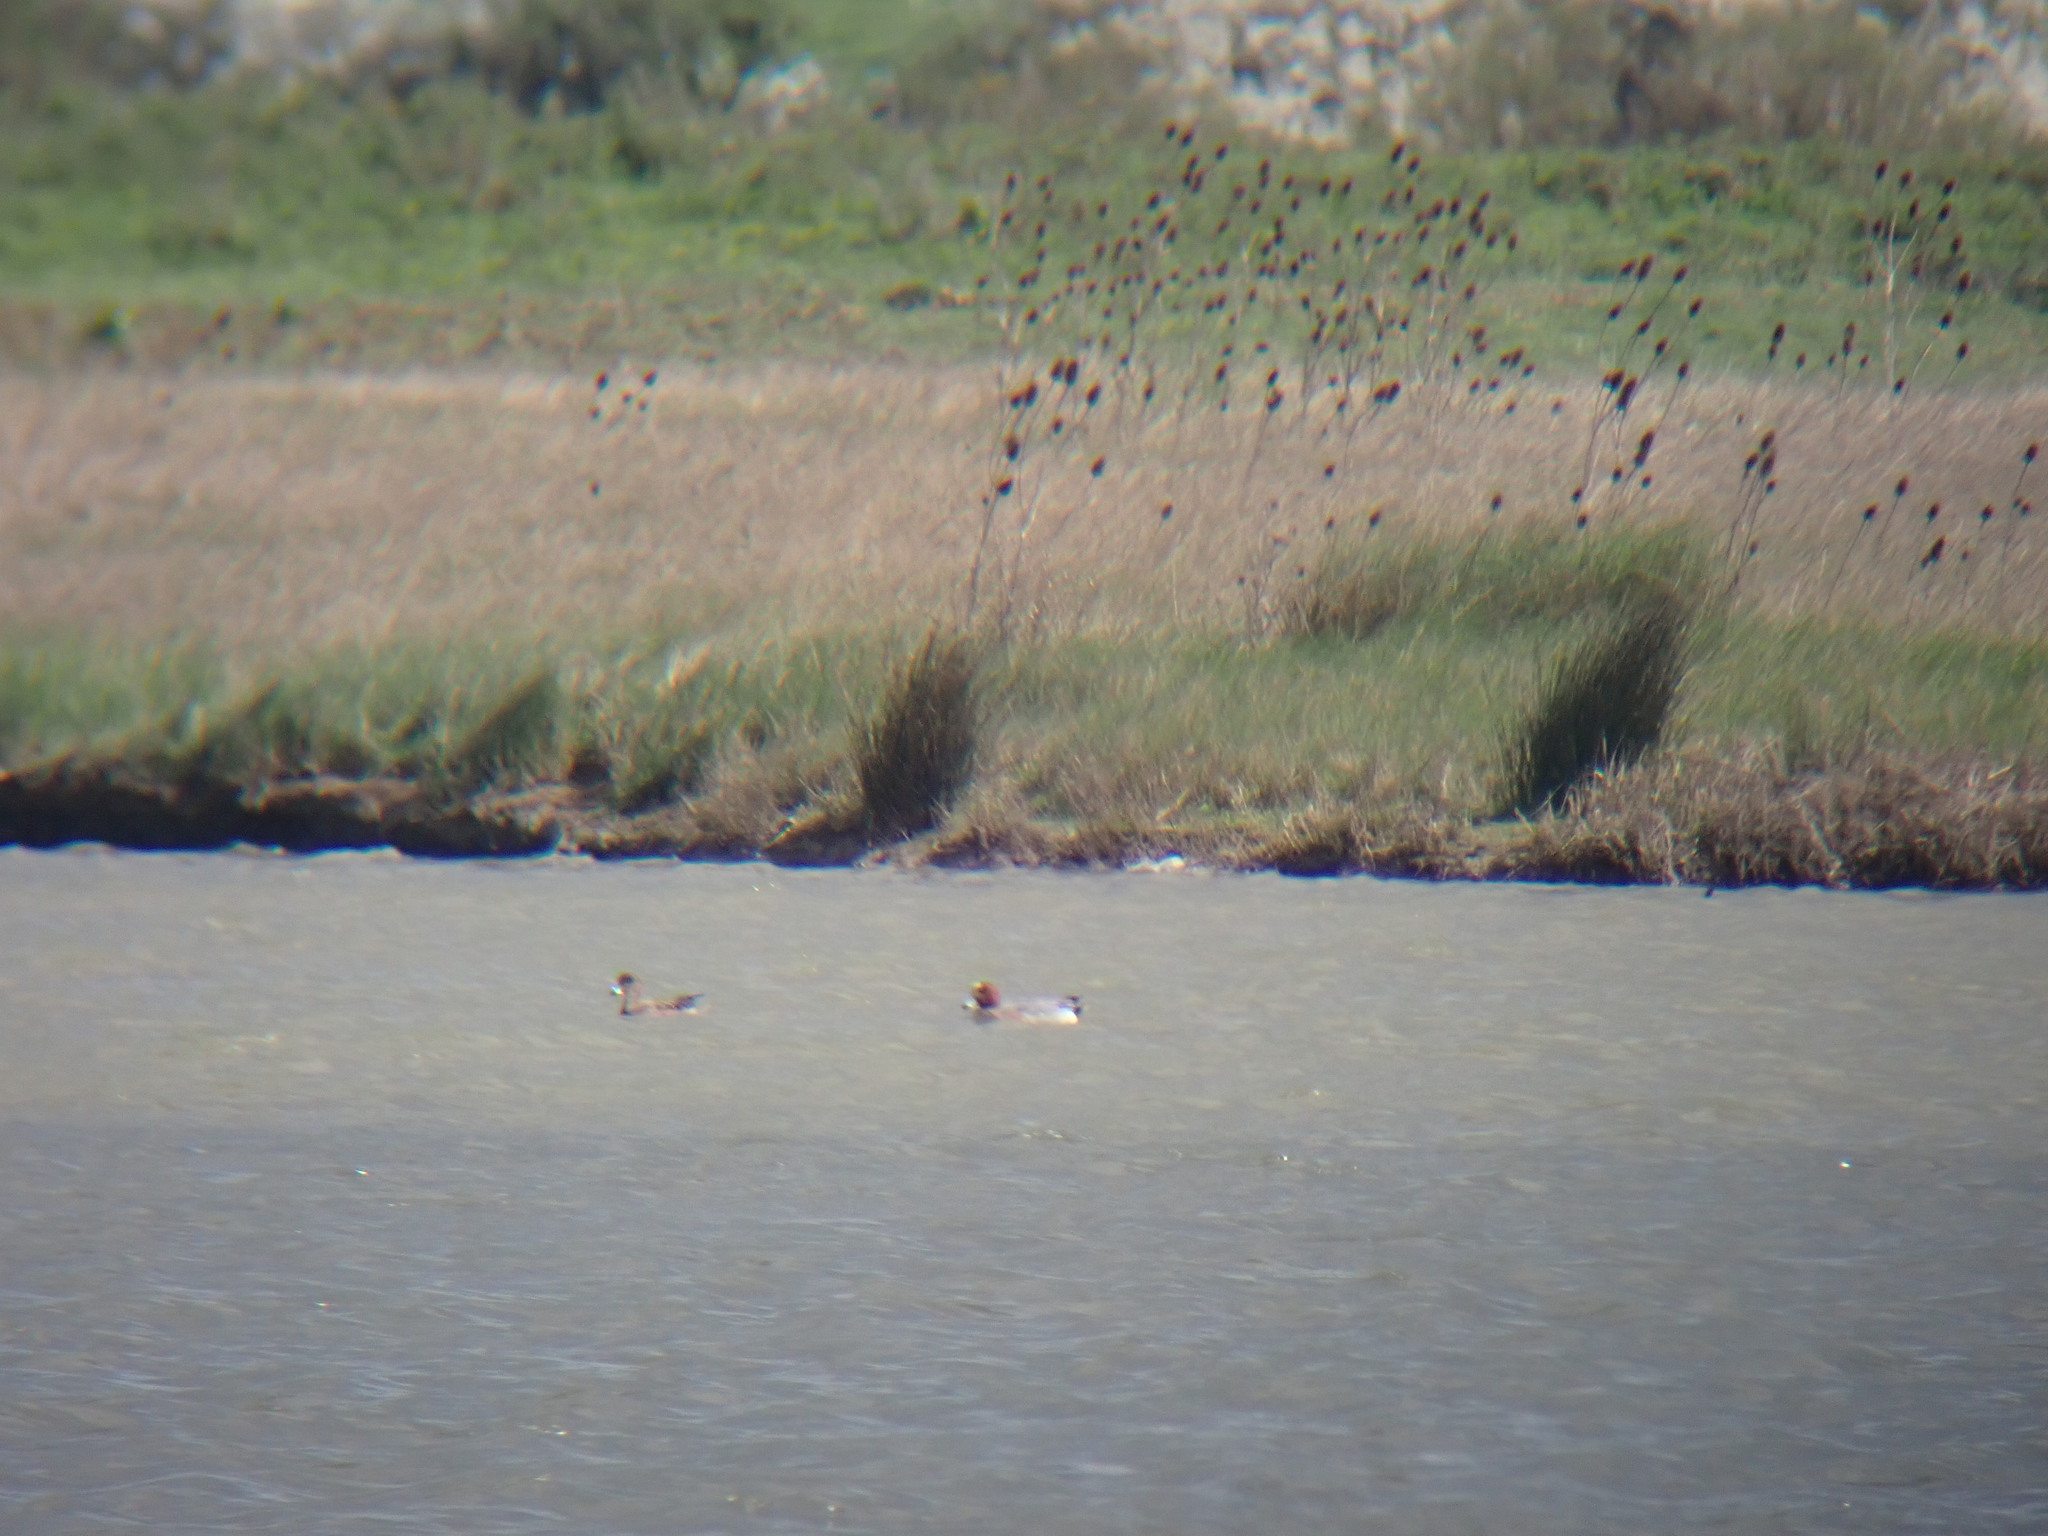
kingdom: Animalia
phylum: Chordata
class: Aves
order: Anseriformes
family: Anatidae
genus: Mareca
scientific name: Mareca penelope
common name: Eurasian wigeon
